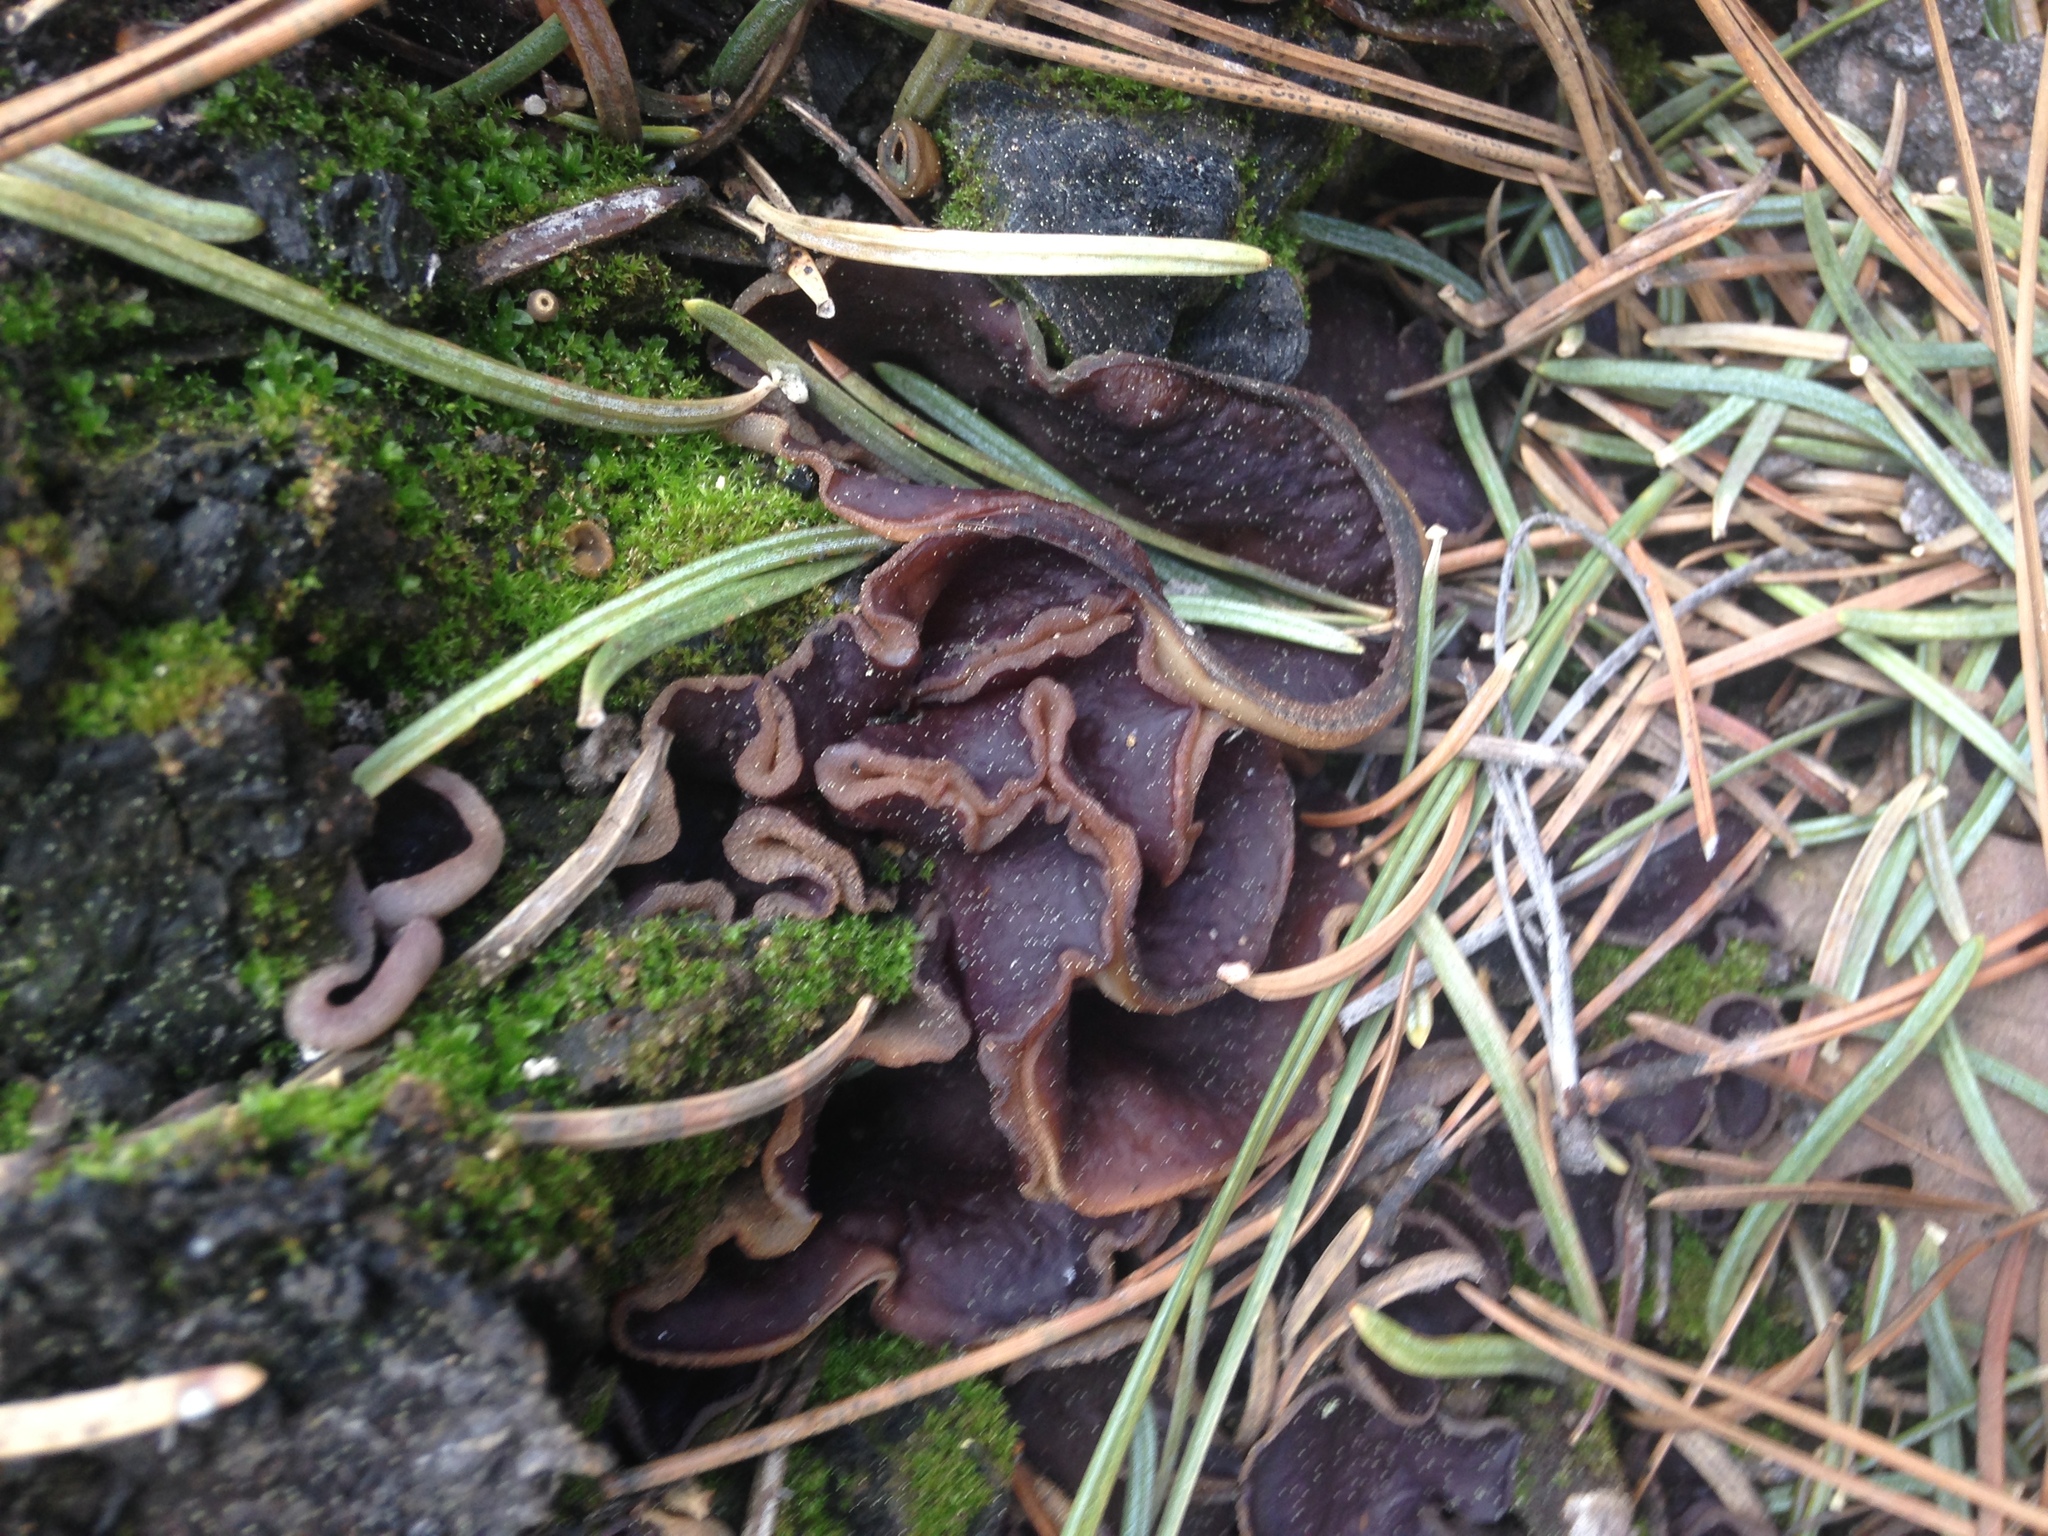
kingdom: Fungi
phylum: Ascomycota
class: Pezizomycetes
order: Pezizales
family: Pezizaceae
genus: Geoscypha
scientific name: Geoscypha violacea
